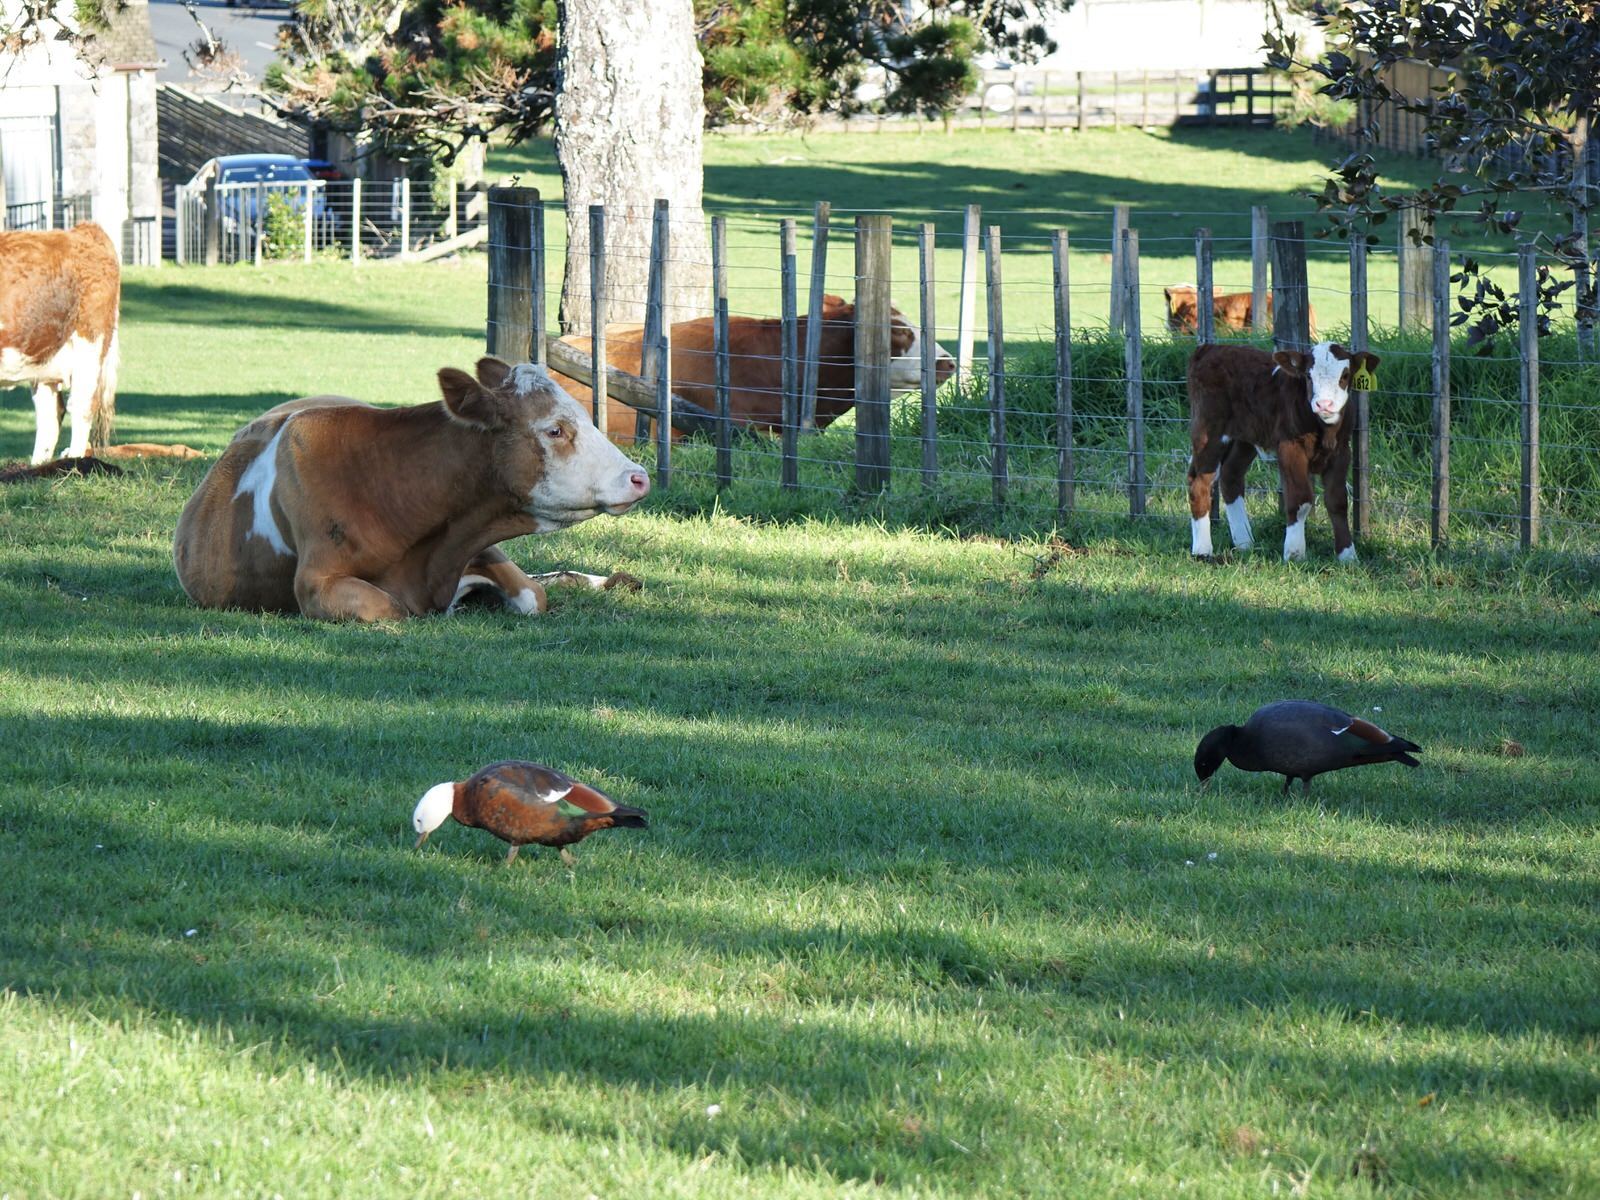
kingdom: Animalia
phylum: Chordata
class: Aves
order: Anseriformes
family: Anatidae
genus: Tadorna
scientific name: Tadorna variegata
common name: Paradise shelduck
